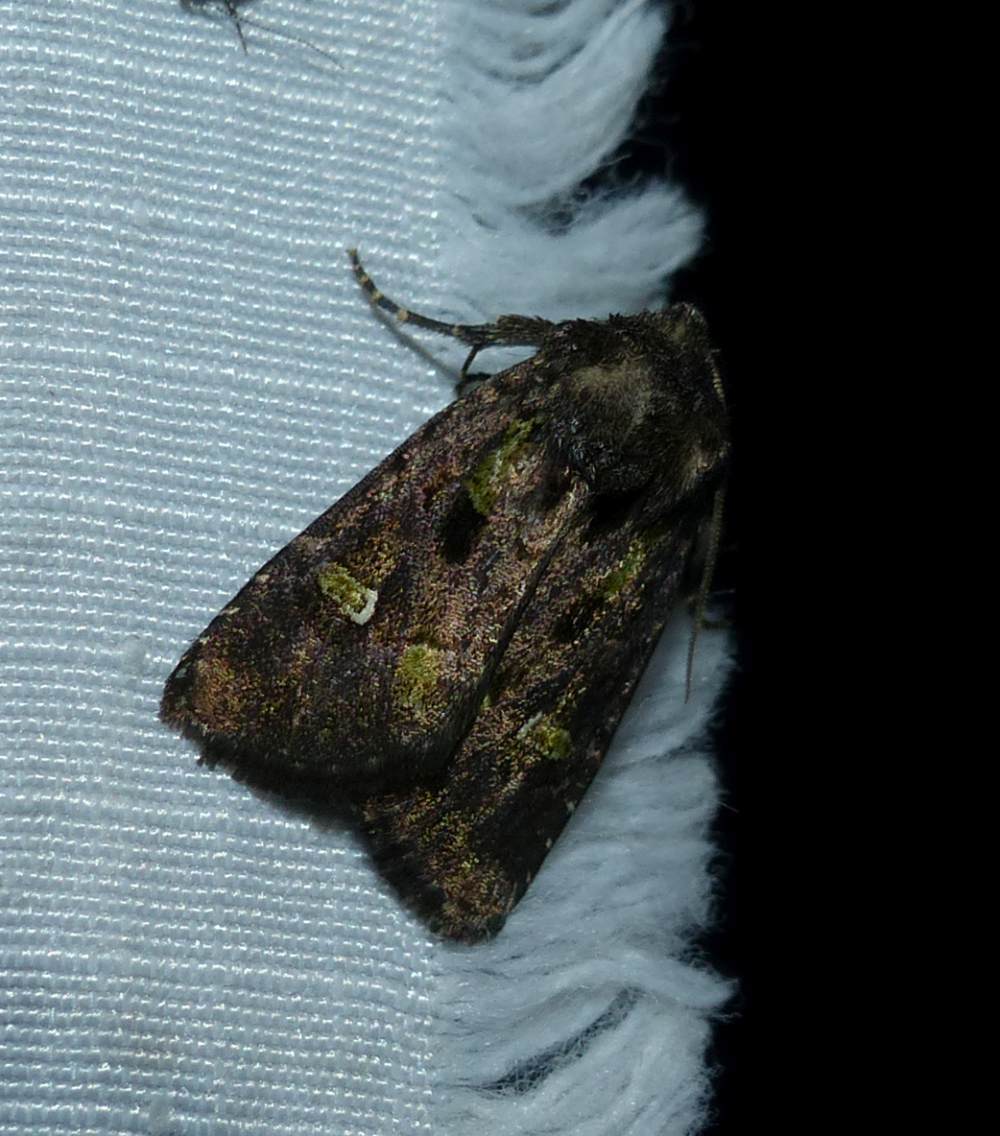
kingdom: Animalia
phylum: Arthropoda
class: Insecta
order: Lepidoptera
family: Noctuidae
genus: Lacinipolia
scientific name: Lacinipolia renigera
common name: Kidney-spotted minor
